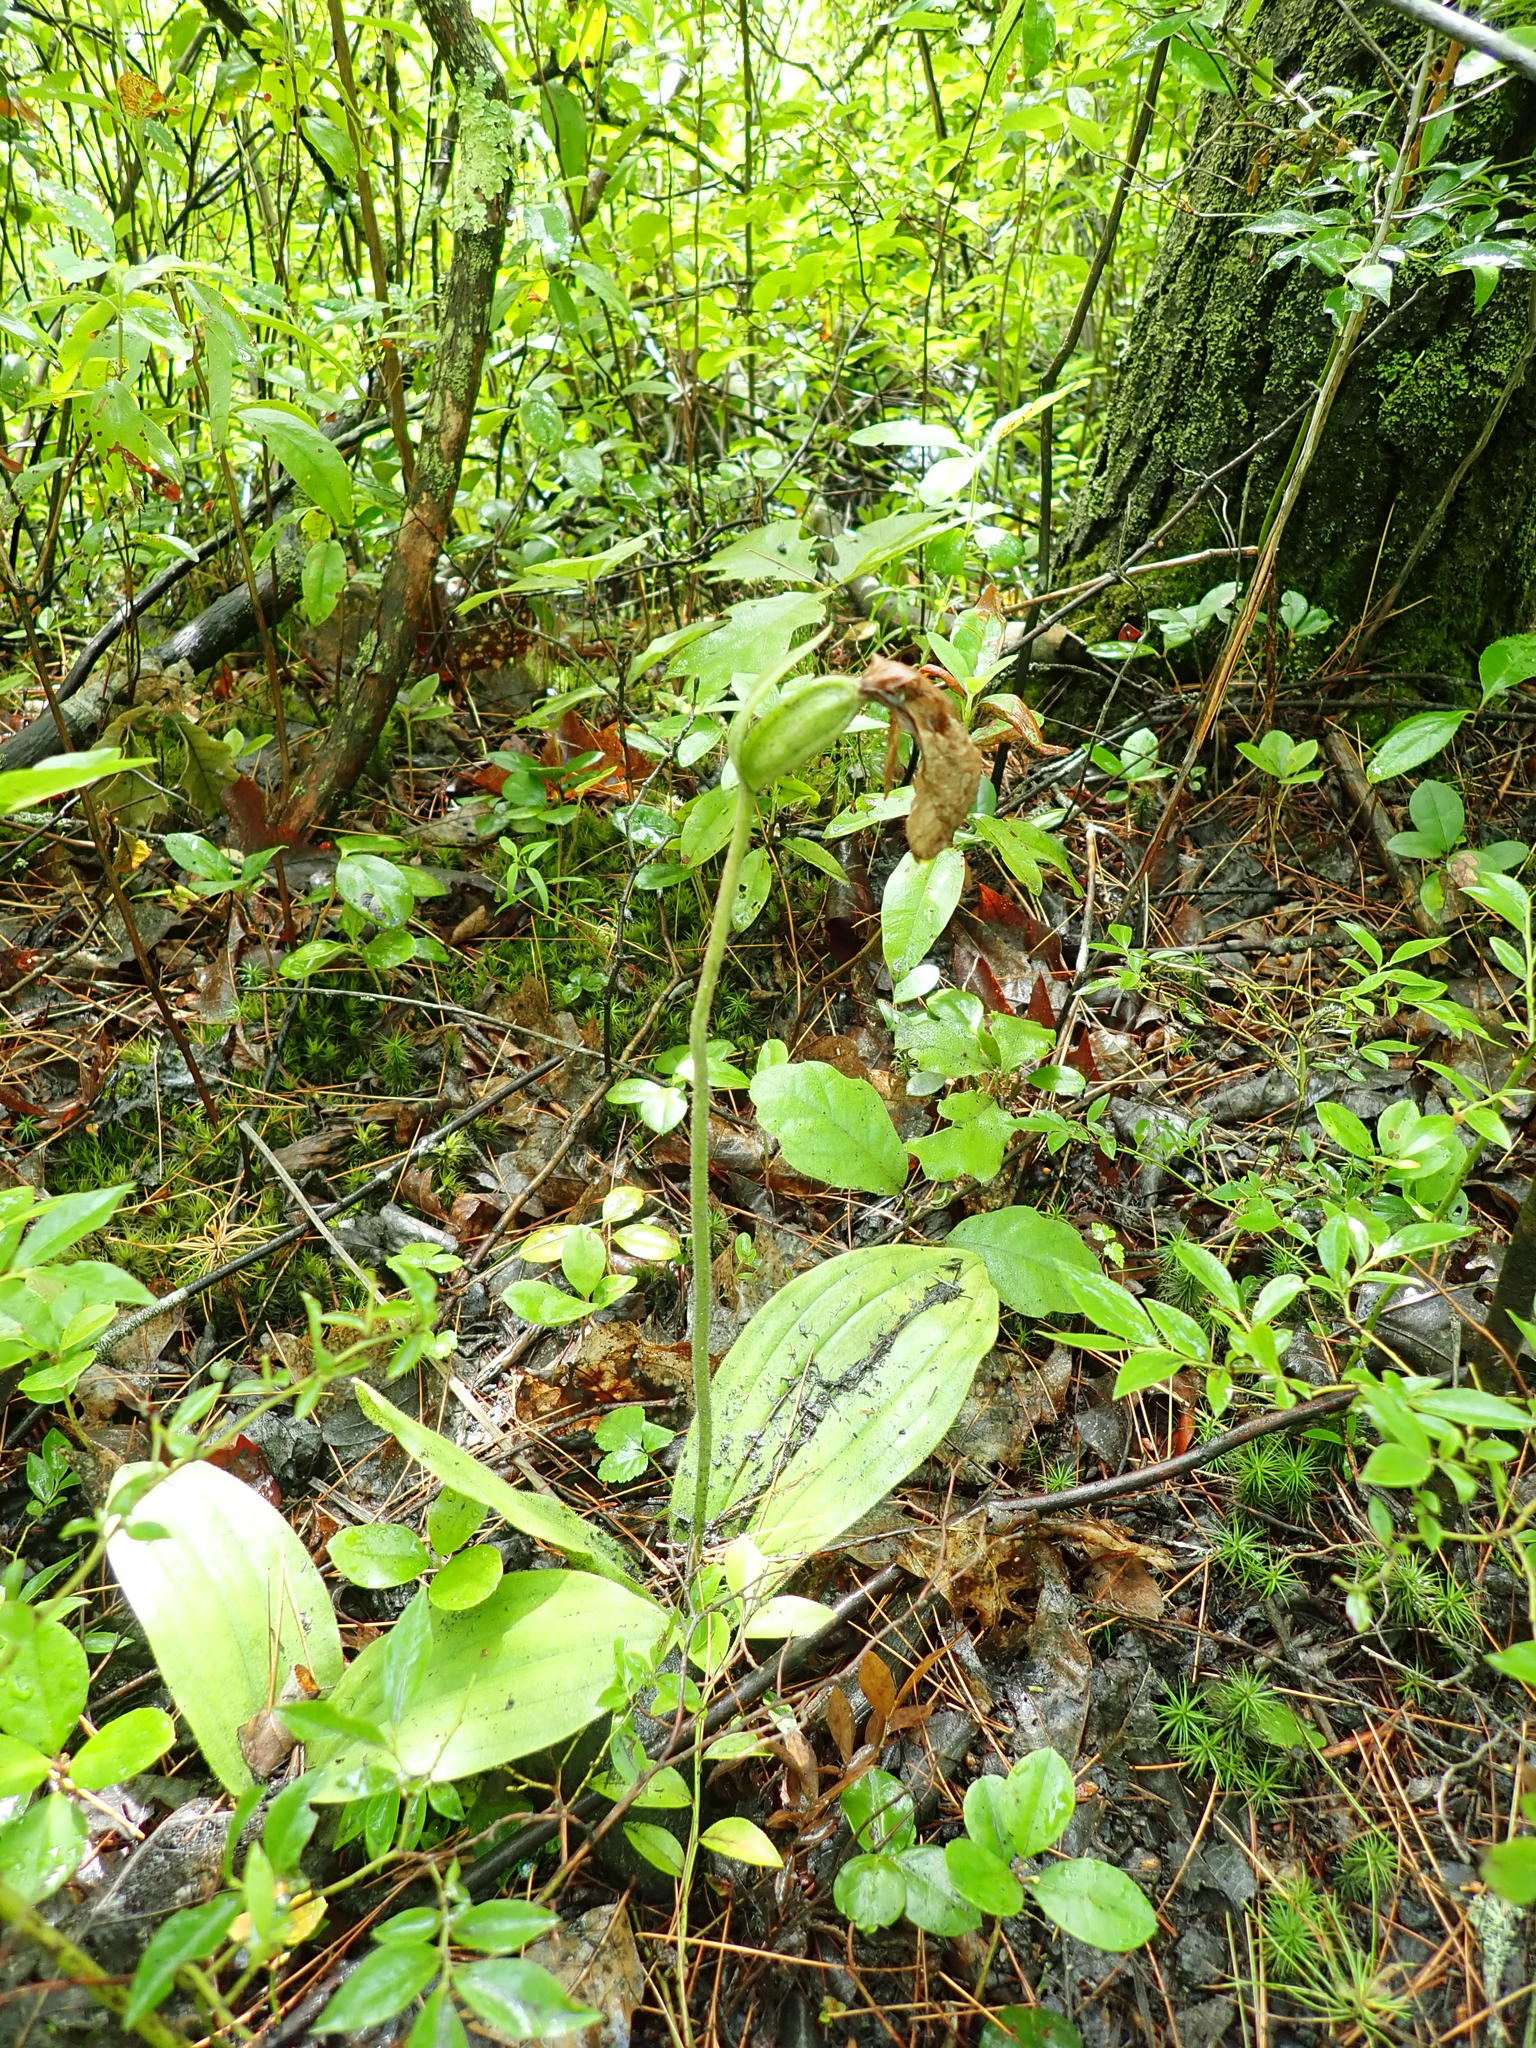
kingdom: Plantae
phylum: Tracheophyta
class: Liliopsida
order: Asparagales
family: Orchidaceae
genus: Cypripedium
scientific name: Cypripedium acaule
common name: Pink lady's-slipper
